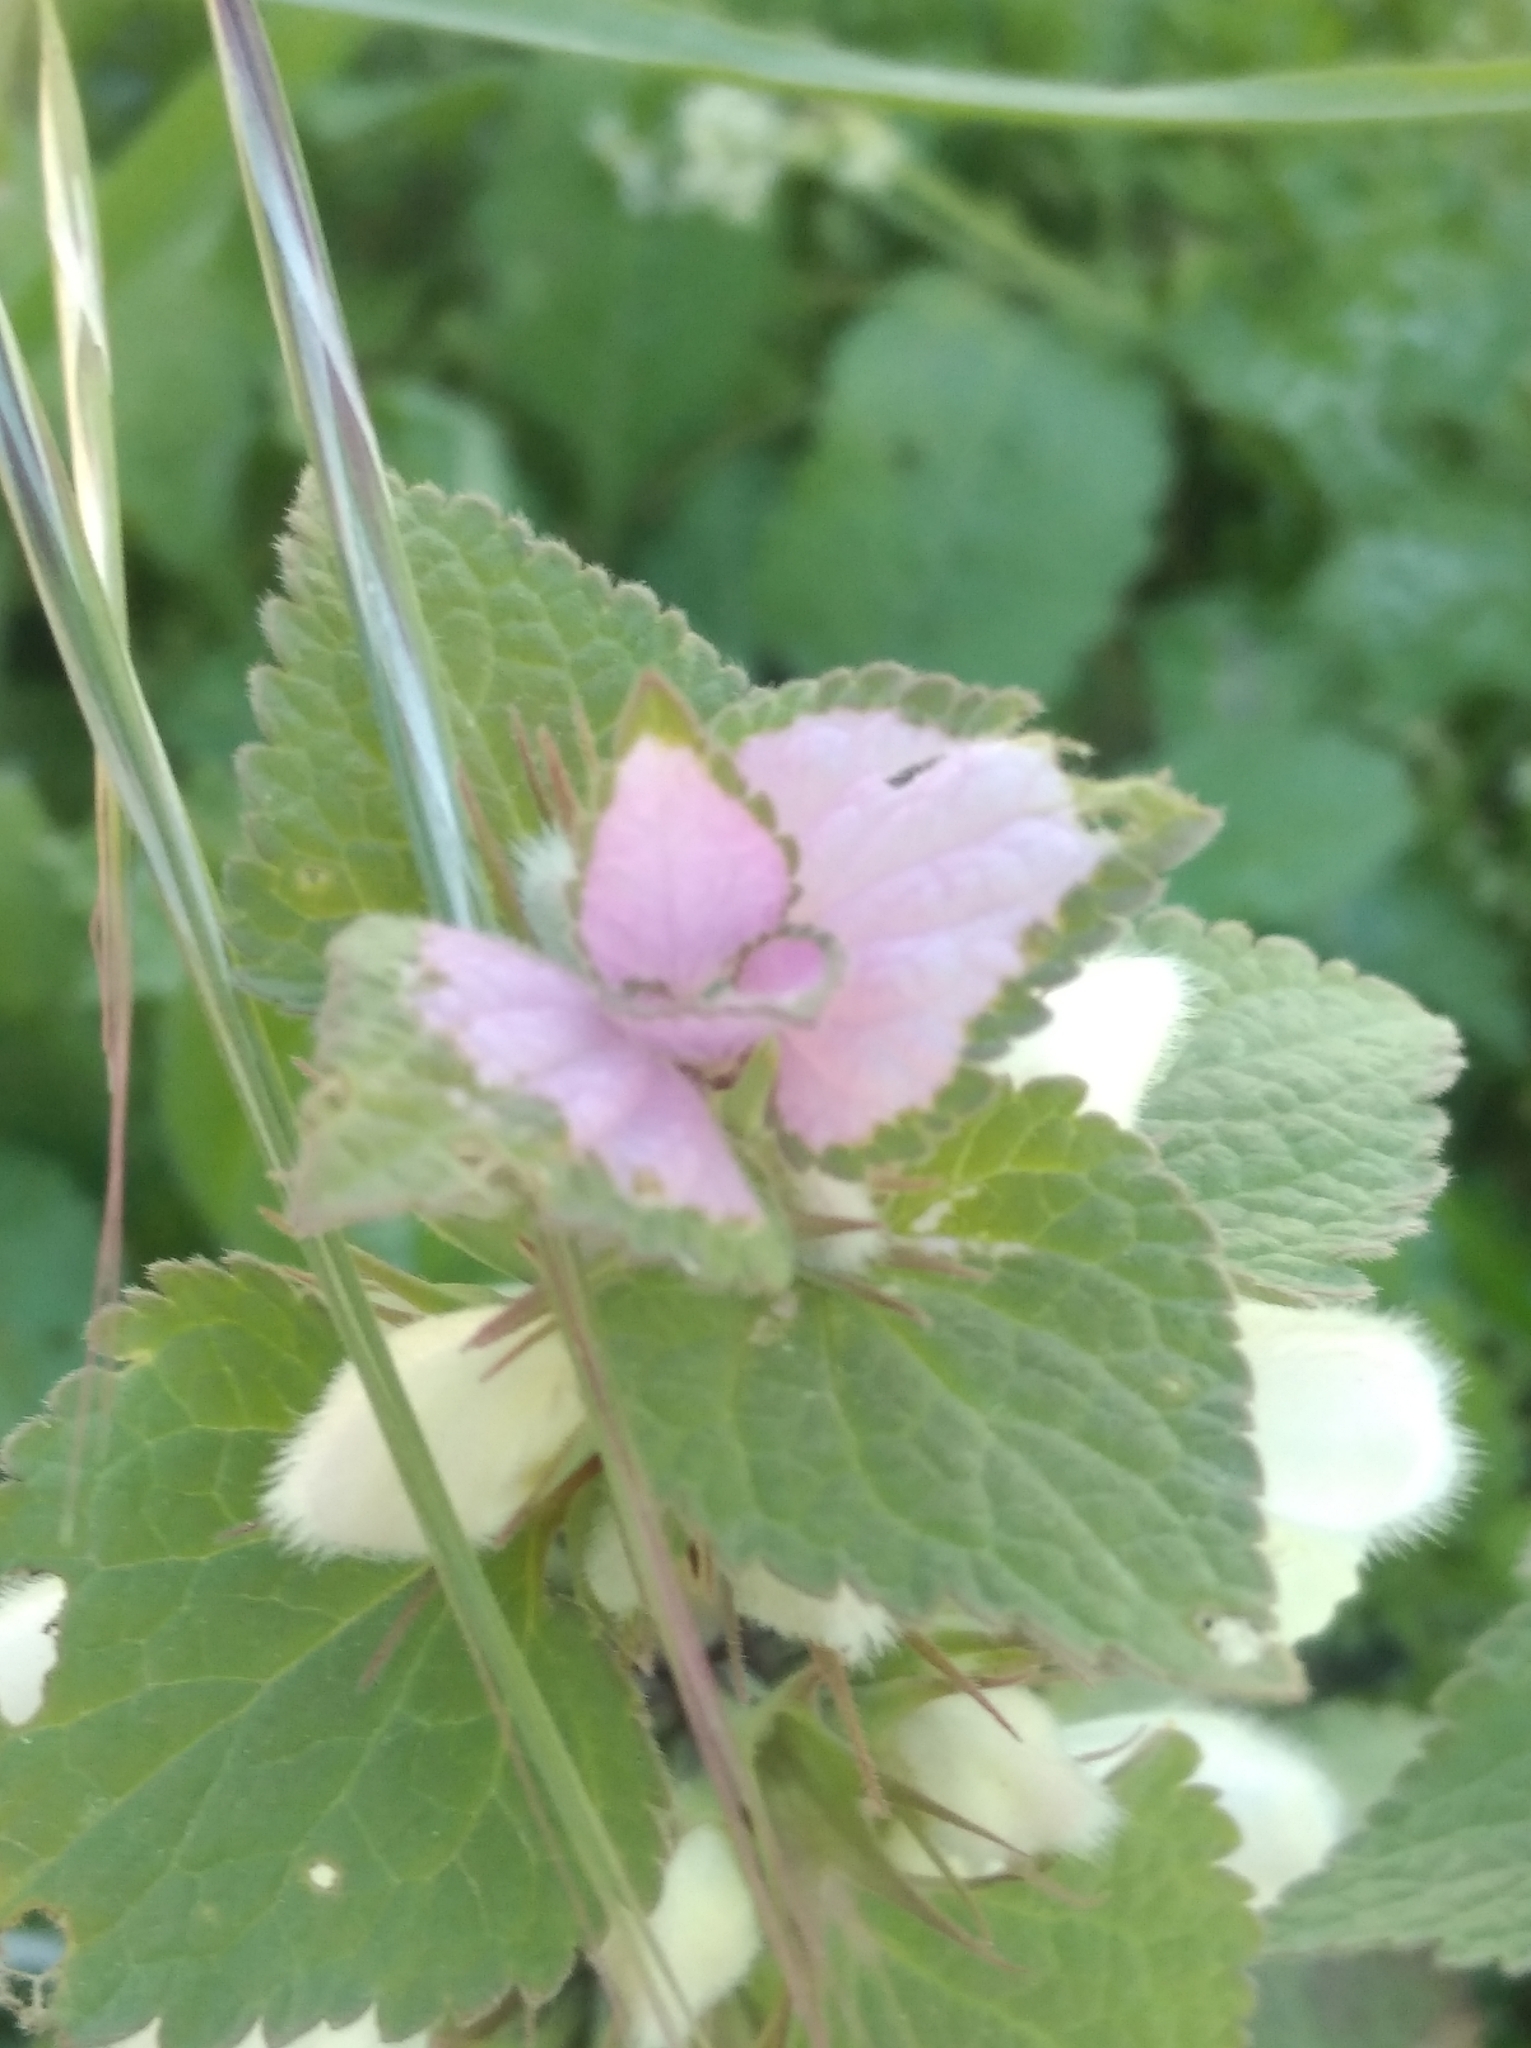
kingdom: Plantae
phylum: Tracheophyta
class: Magnoliopsida
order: Lamiales
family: Lamiaceae
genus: Lamium
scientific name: Lamium moschatum
